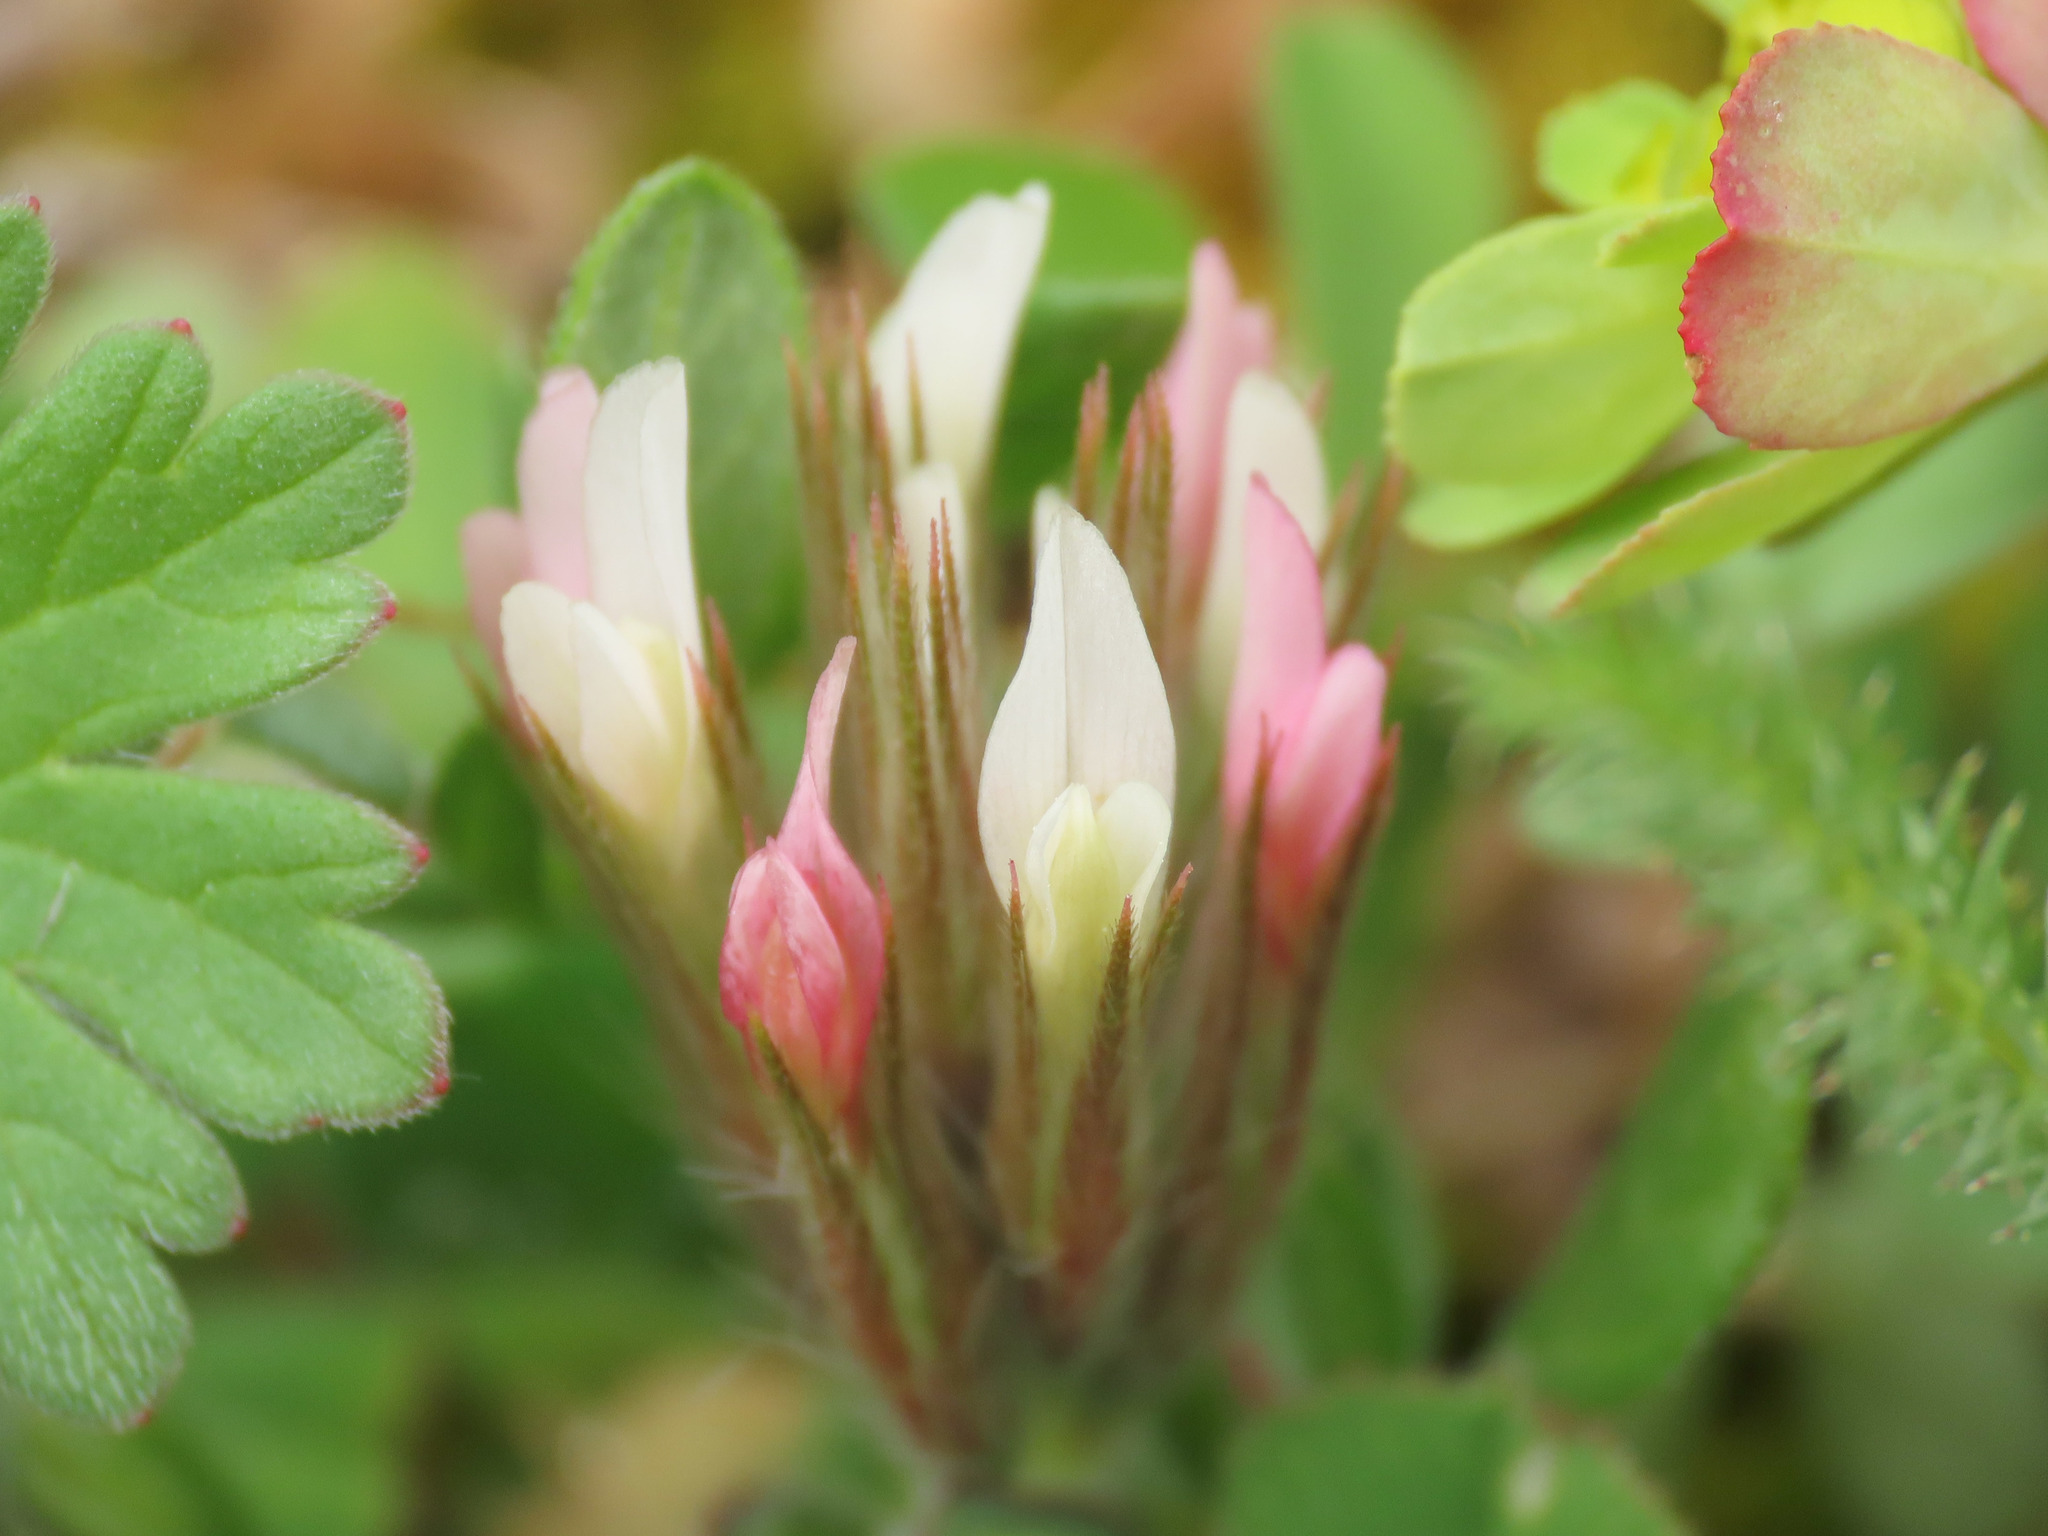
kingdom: Plantae
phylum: Tracheophyta
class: Magnoliopsida
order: Fabales
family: Fabaceae
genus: Trifolium
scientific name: Trifolium stellatum
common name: Starry clover
